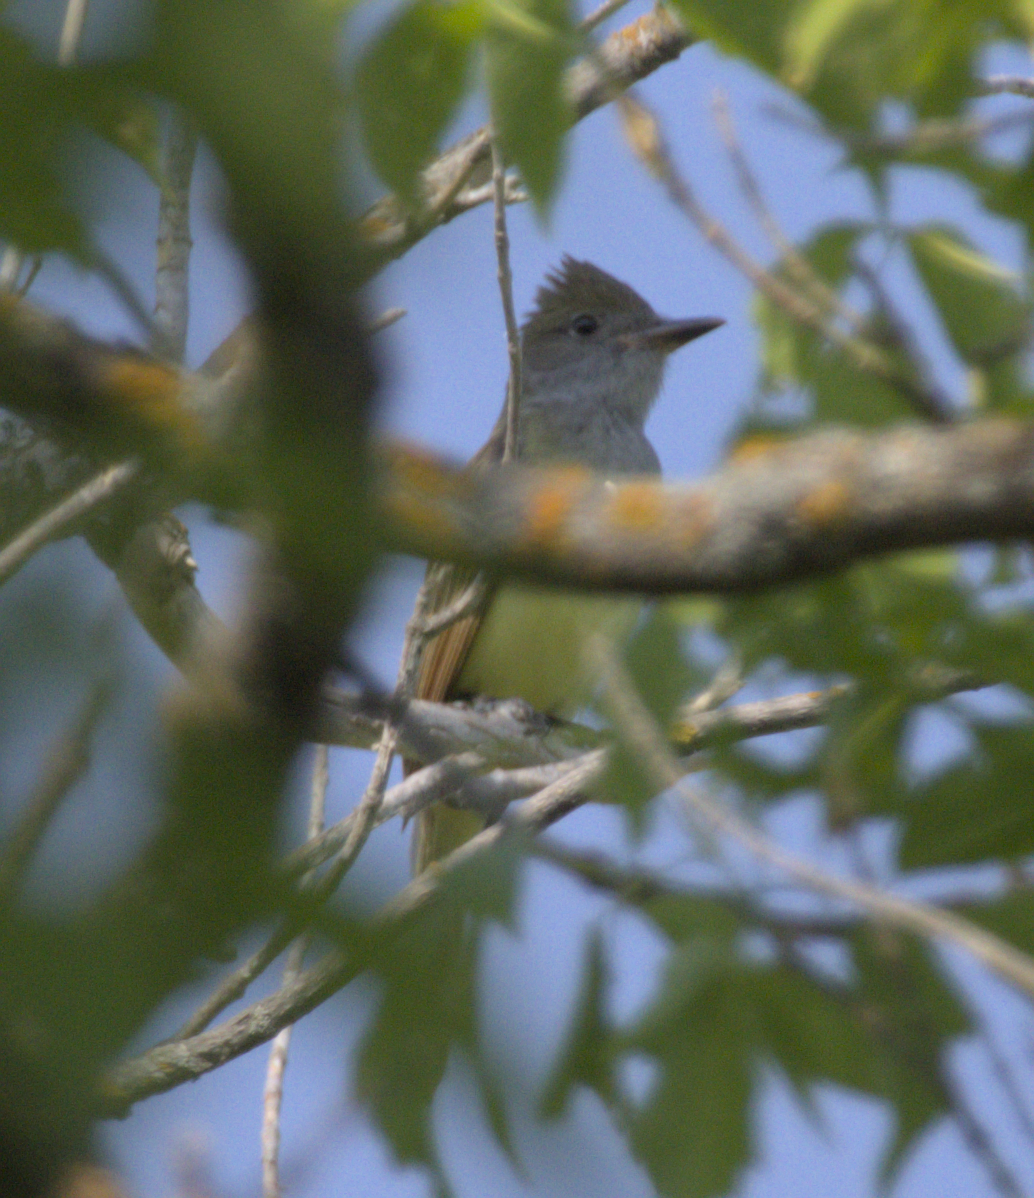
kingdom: Animalia
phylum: Chordata
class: Aves
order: Passeriformes
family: Tyrannidae
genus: Myiarchus
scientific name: Myiarchus crinitus
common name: Great crested flycatcher
